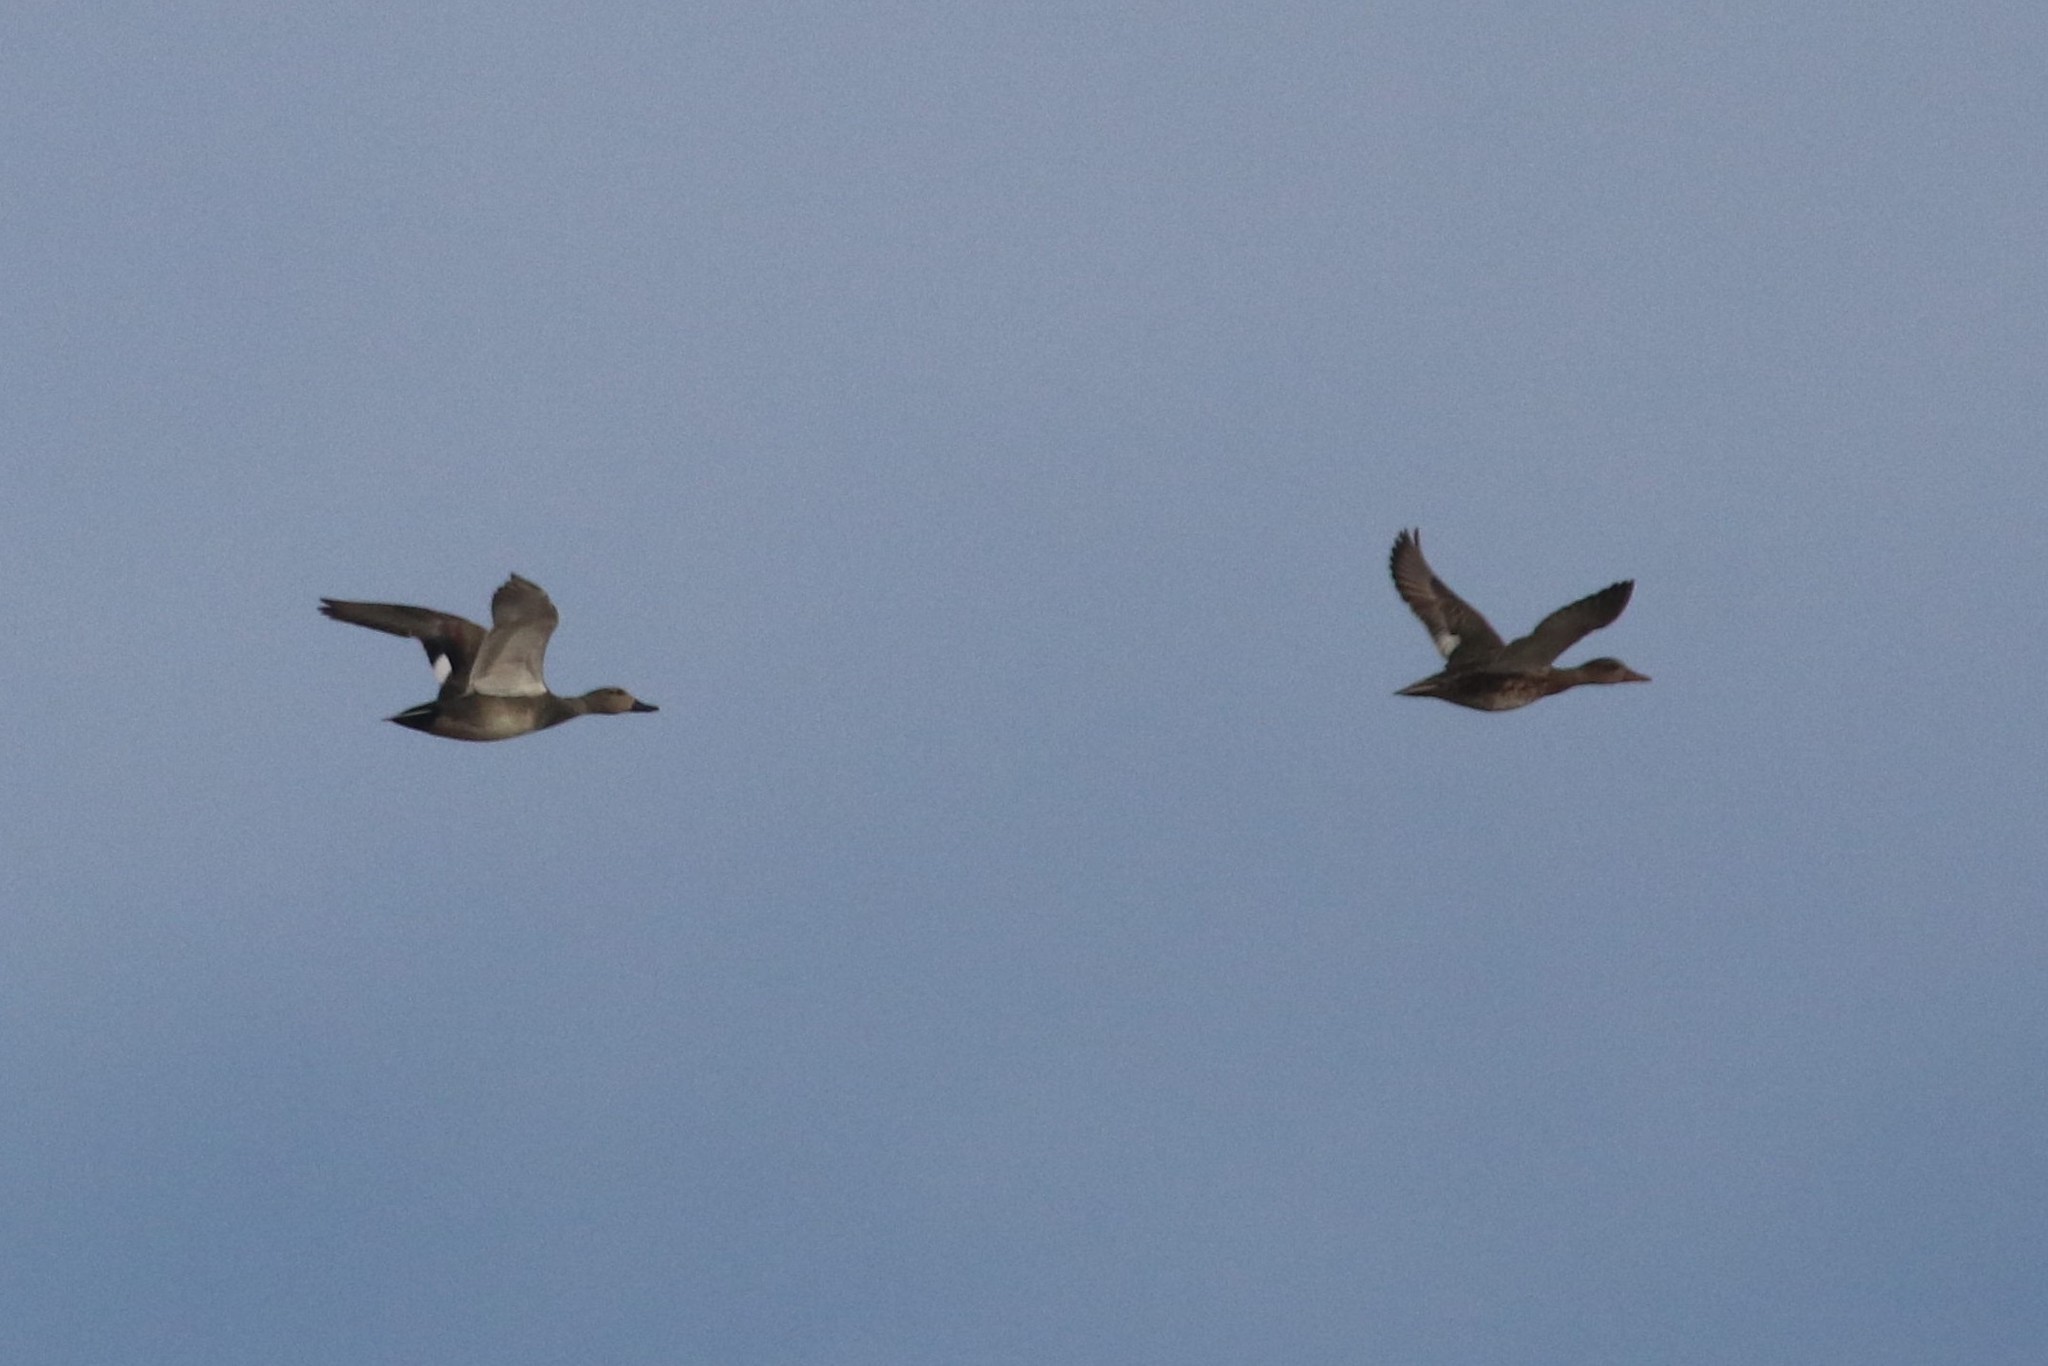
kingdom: Animalia
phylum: Chordata
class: Aves
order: Anseriformes
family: Anatidae
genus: Mareca
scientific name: Mareca strepera
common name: Gadwall
